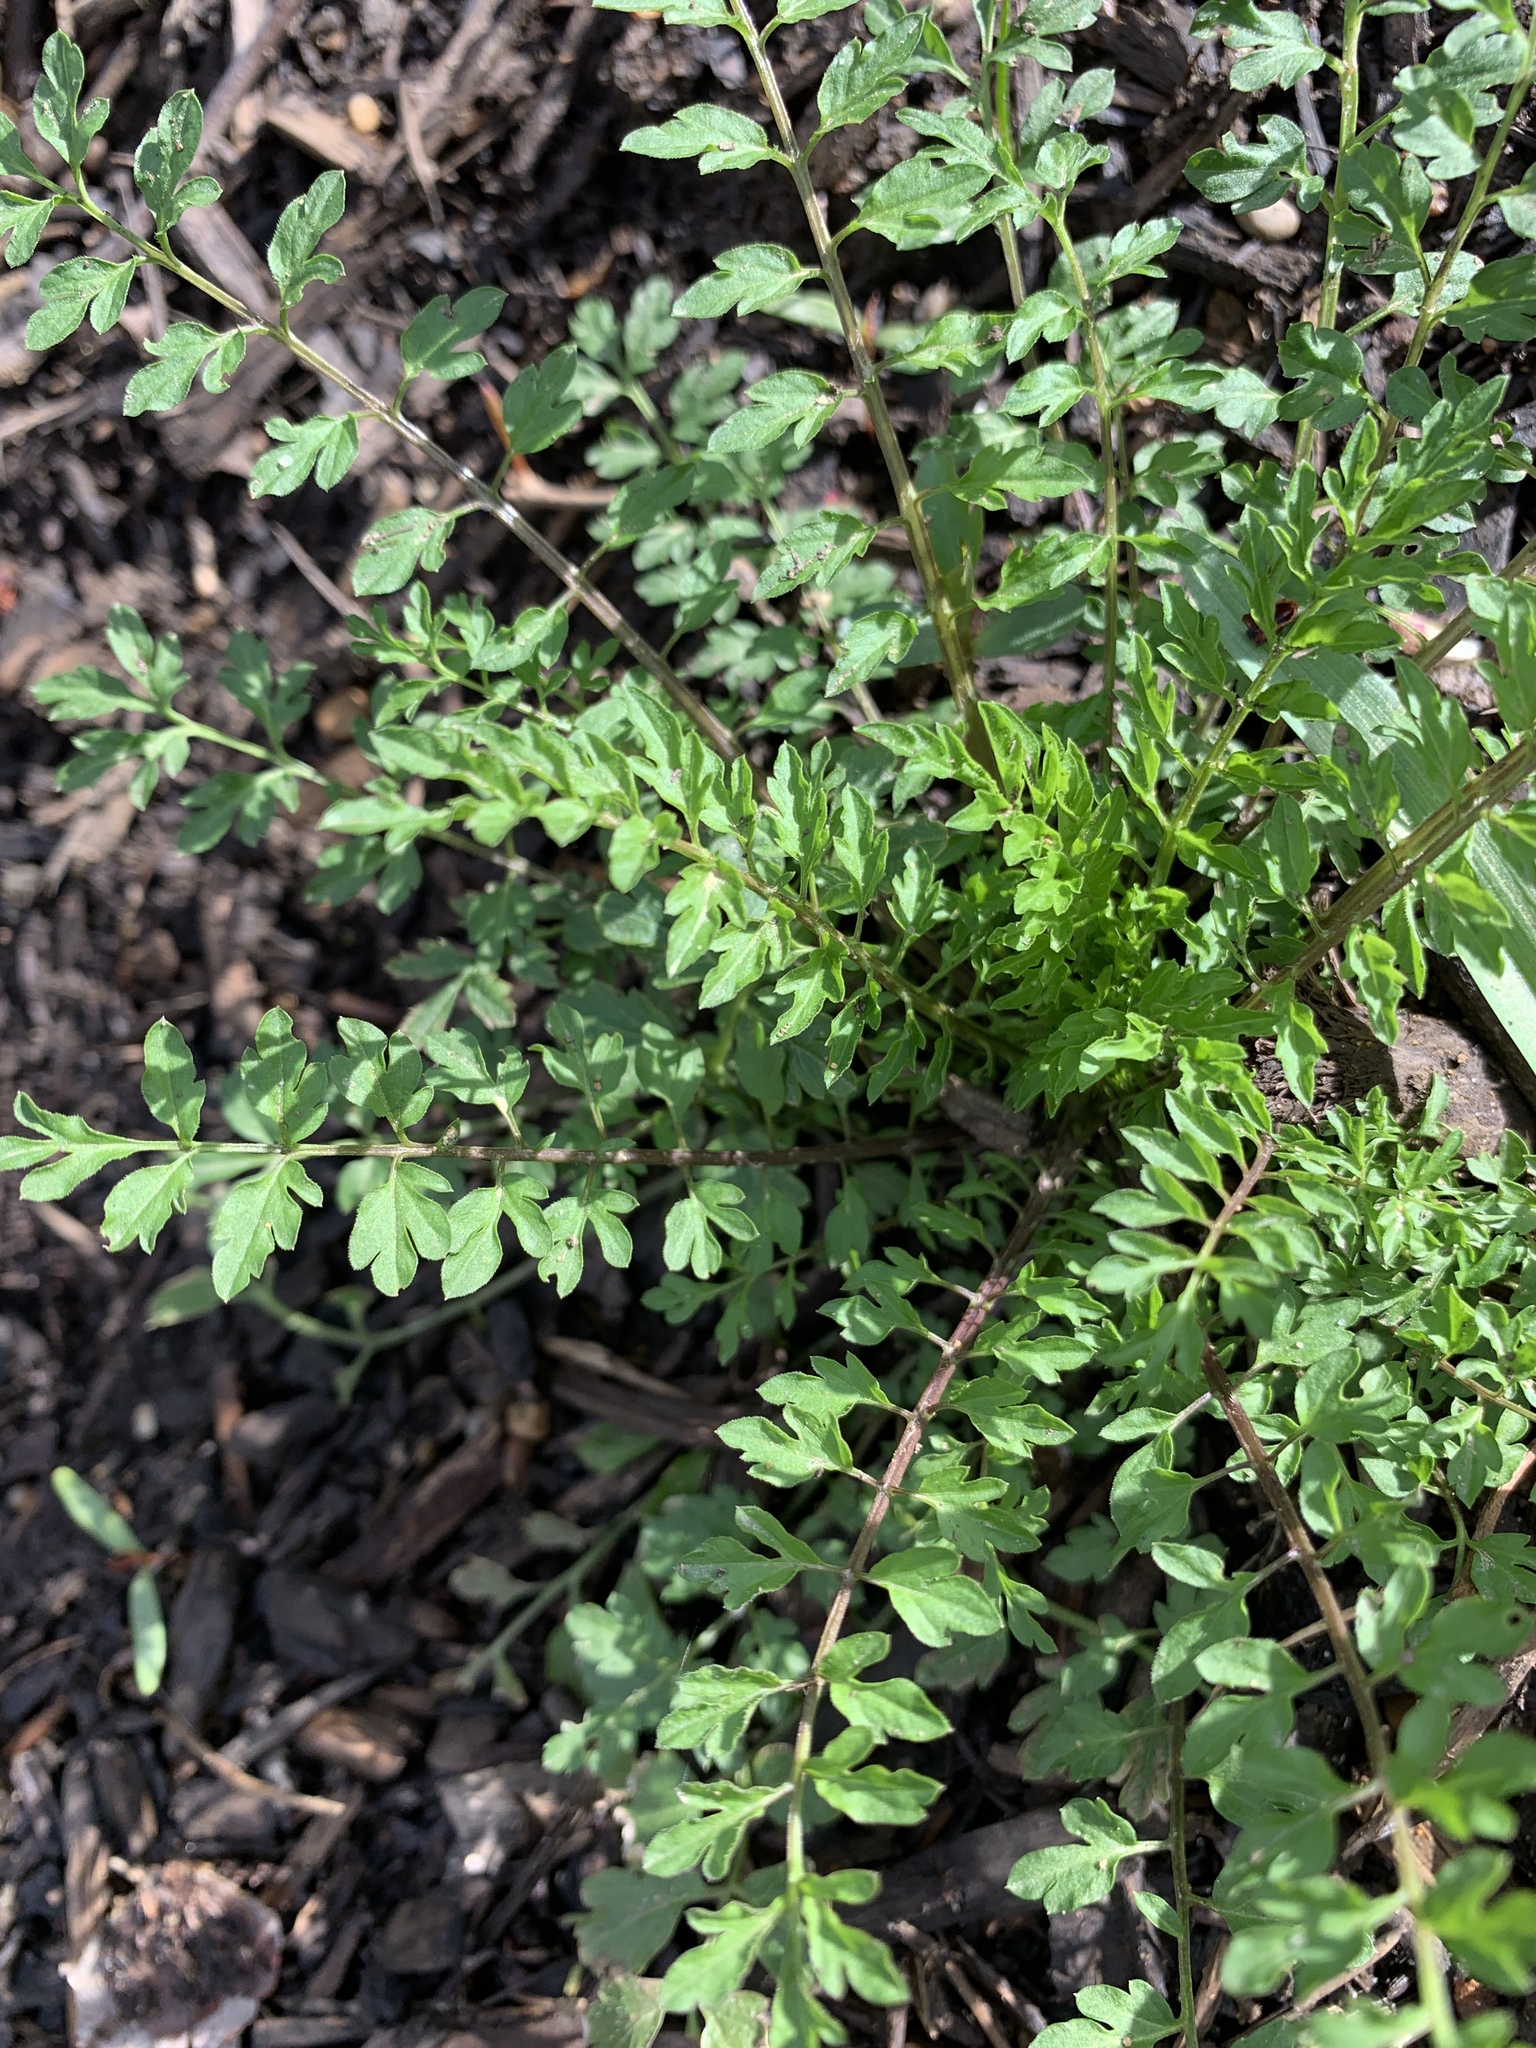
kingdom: Plantae
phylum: Tracheophyta
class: Magnoliopsida
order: Brassicales
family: Brassicaceae
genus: Cardamine
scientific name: Cardamine impatiens
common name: Narrow-leaved bitter-cress
